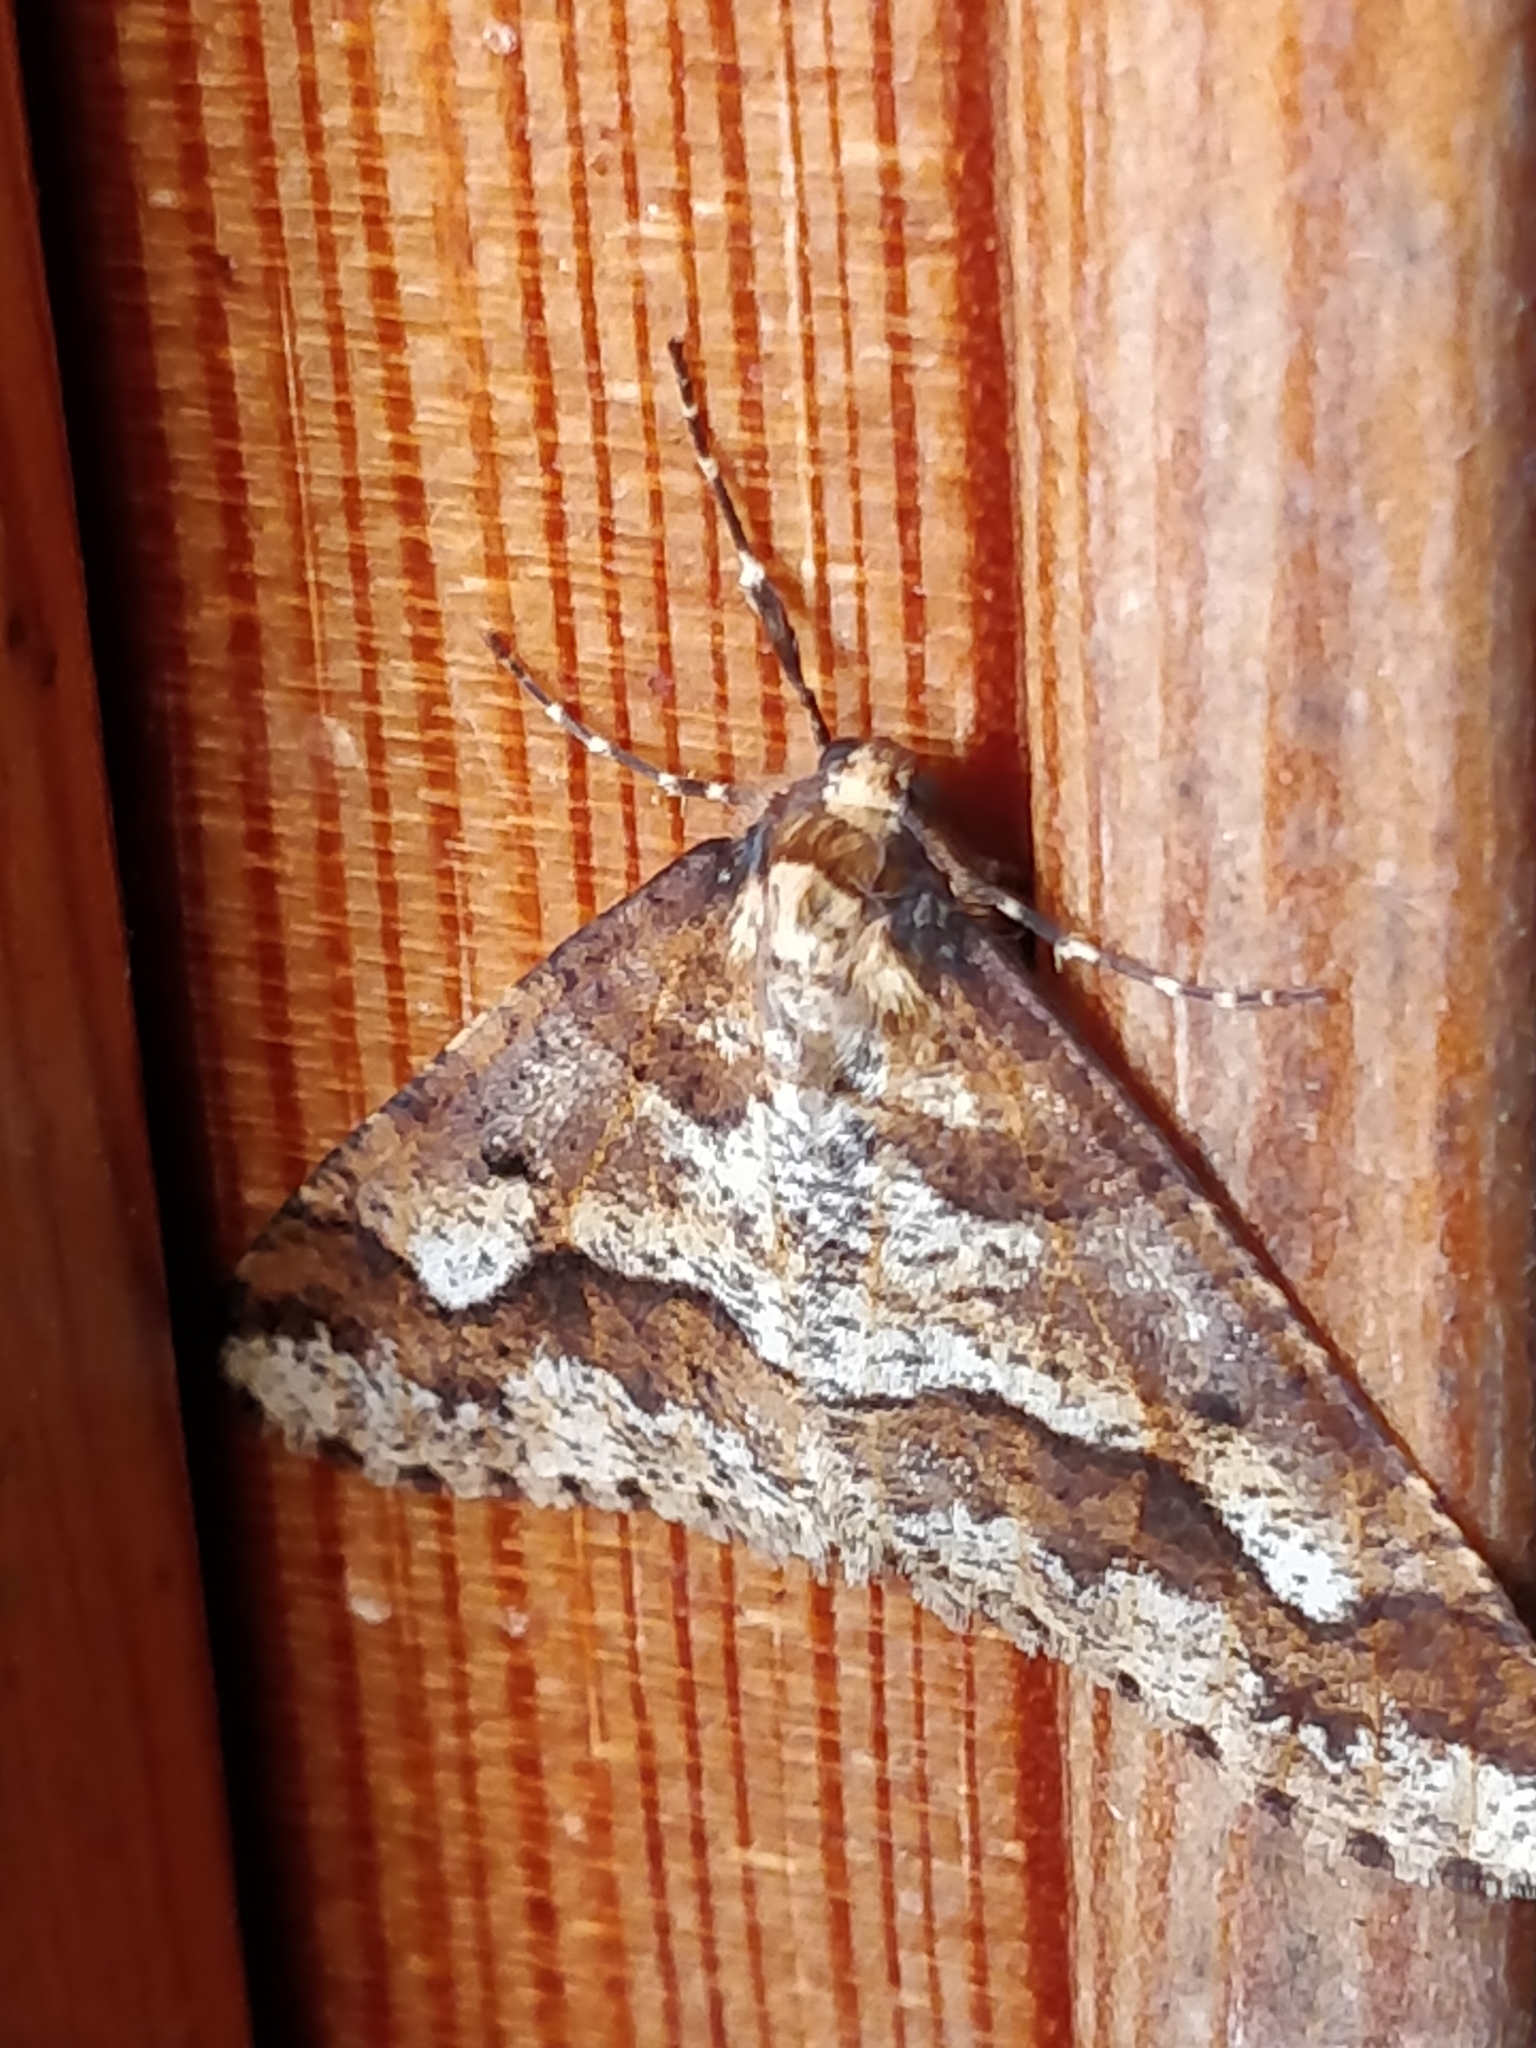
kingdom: Animalia
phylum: Arthropoda
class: Insecta
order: Lepidoptera
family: Geometridae
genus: Erannis
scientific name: Erannis defoliaria
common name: Mottled umber
